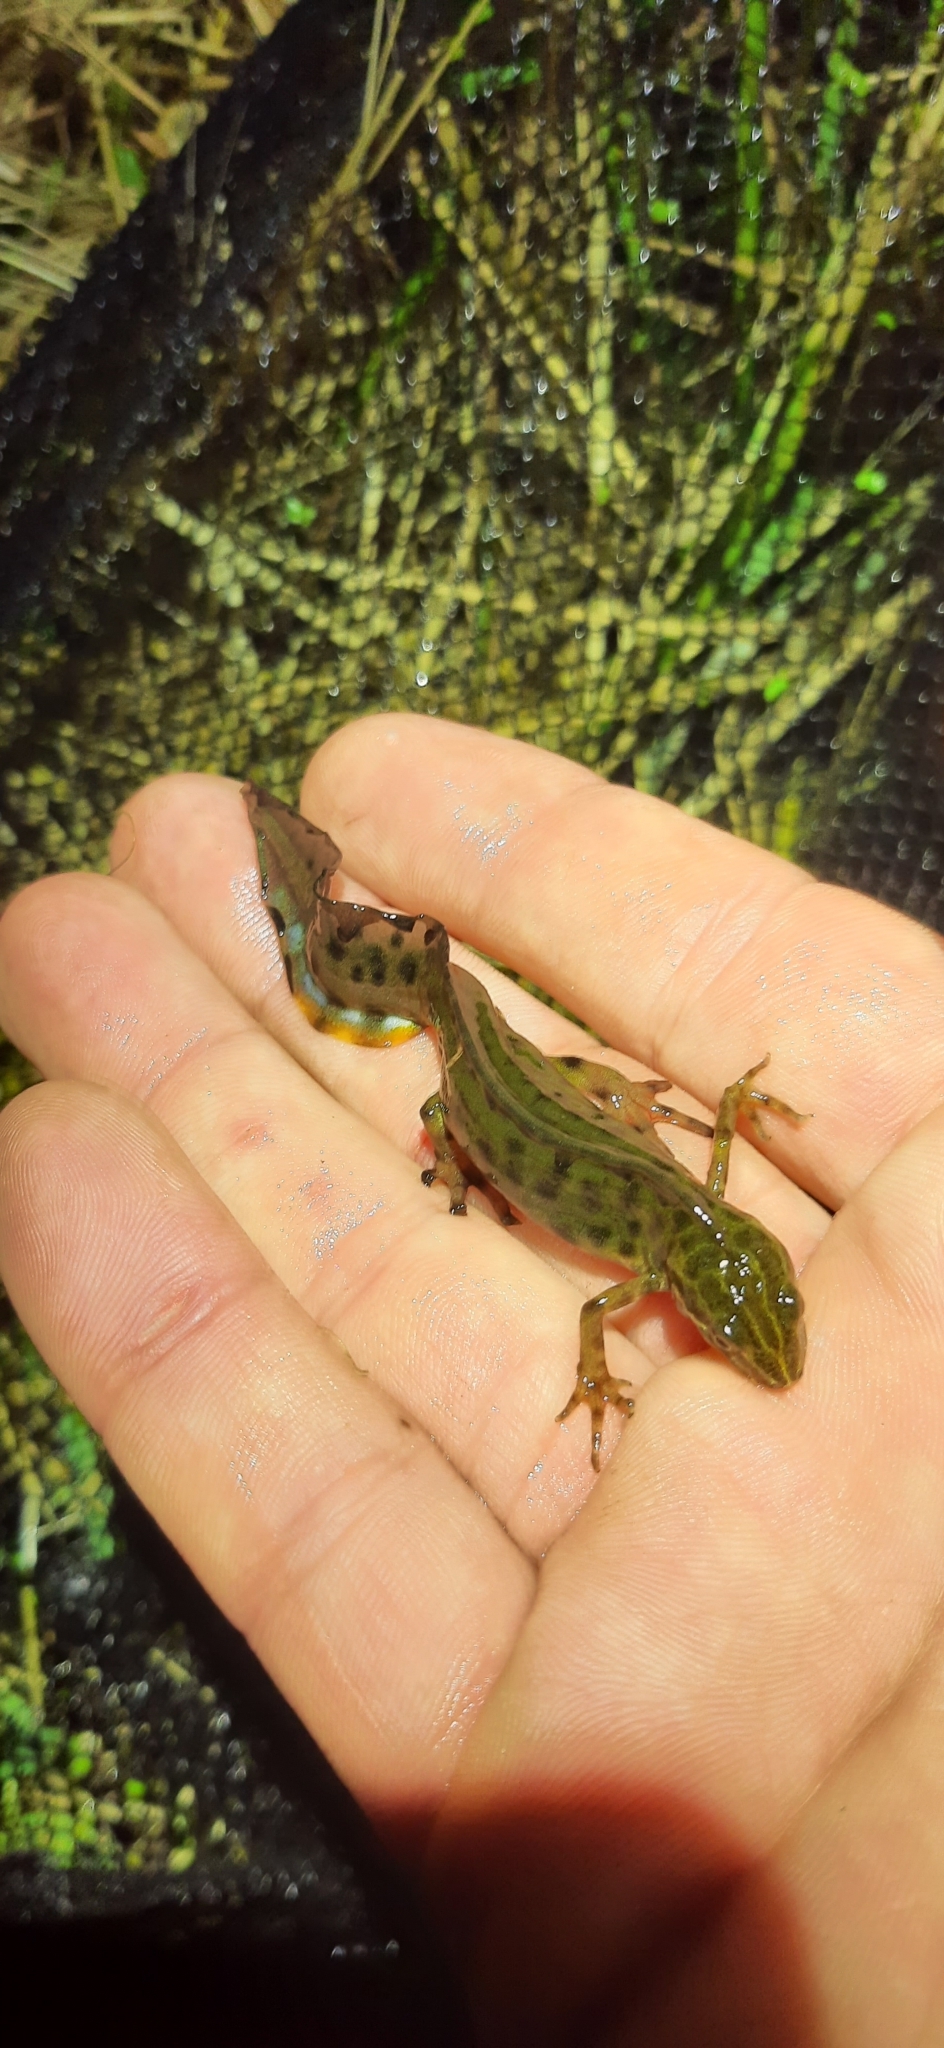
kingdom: Animalia
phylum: Chordata
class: Amphibia
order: Caudata
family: Salamandridae
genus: Lissotriton
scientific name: Lissotriton vulgaris
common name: Smooth newt
